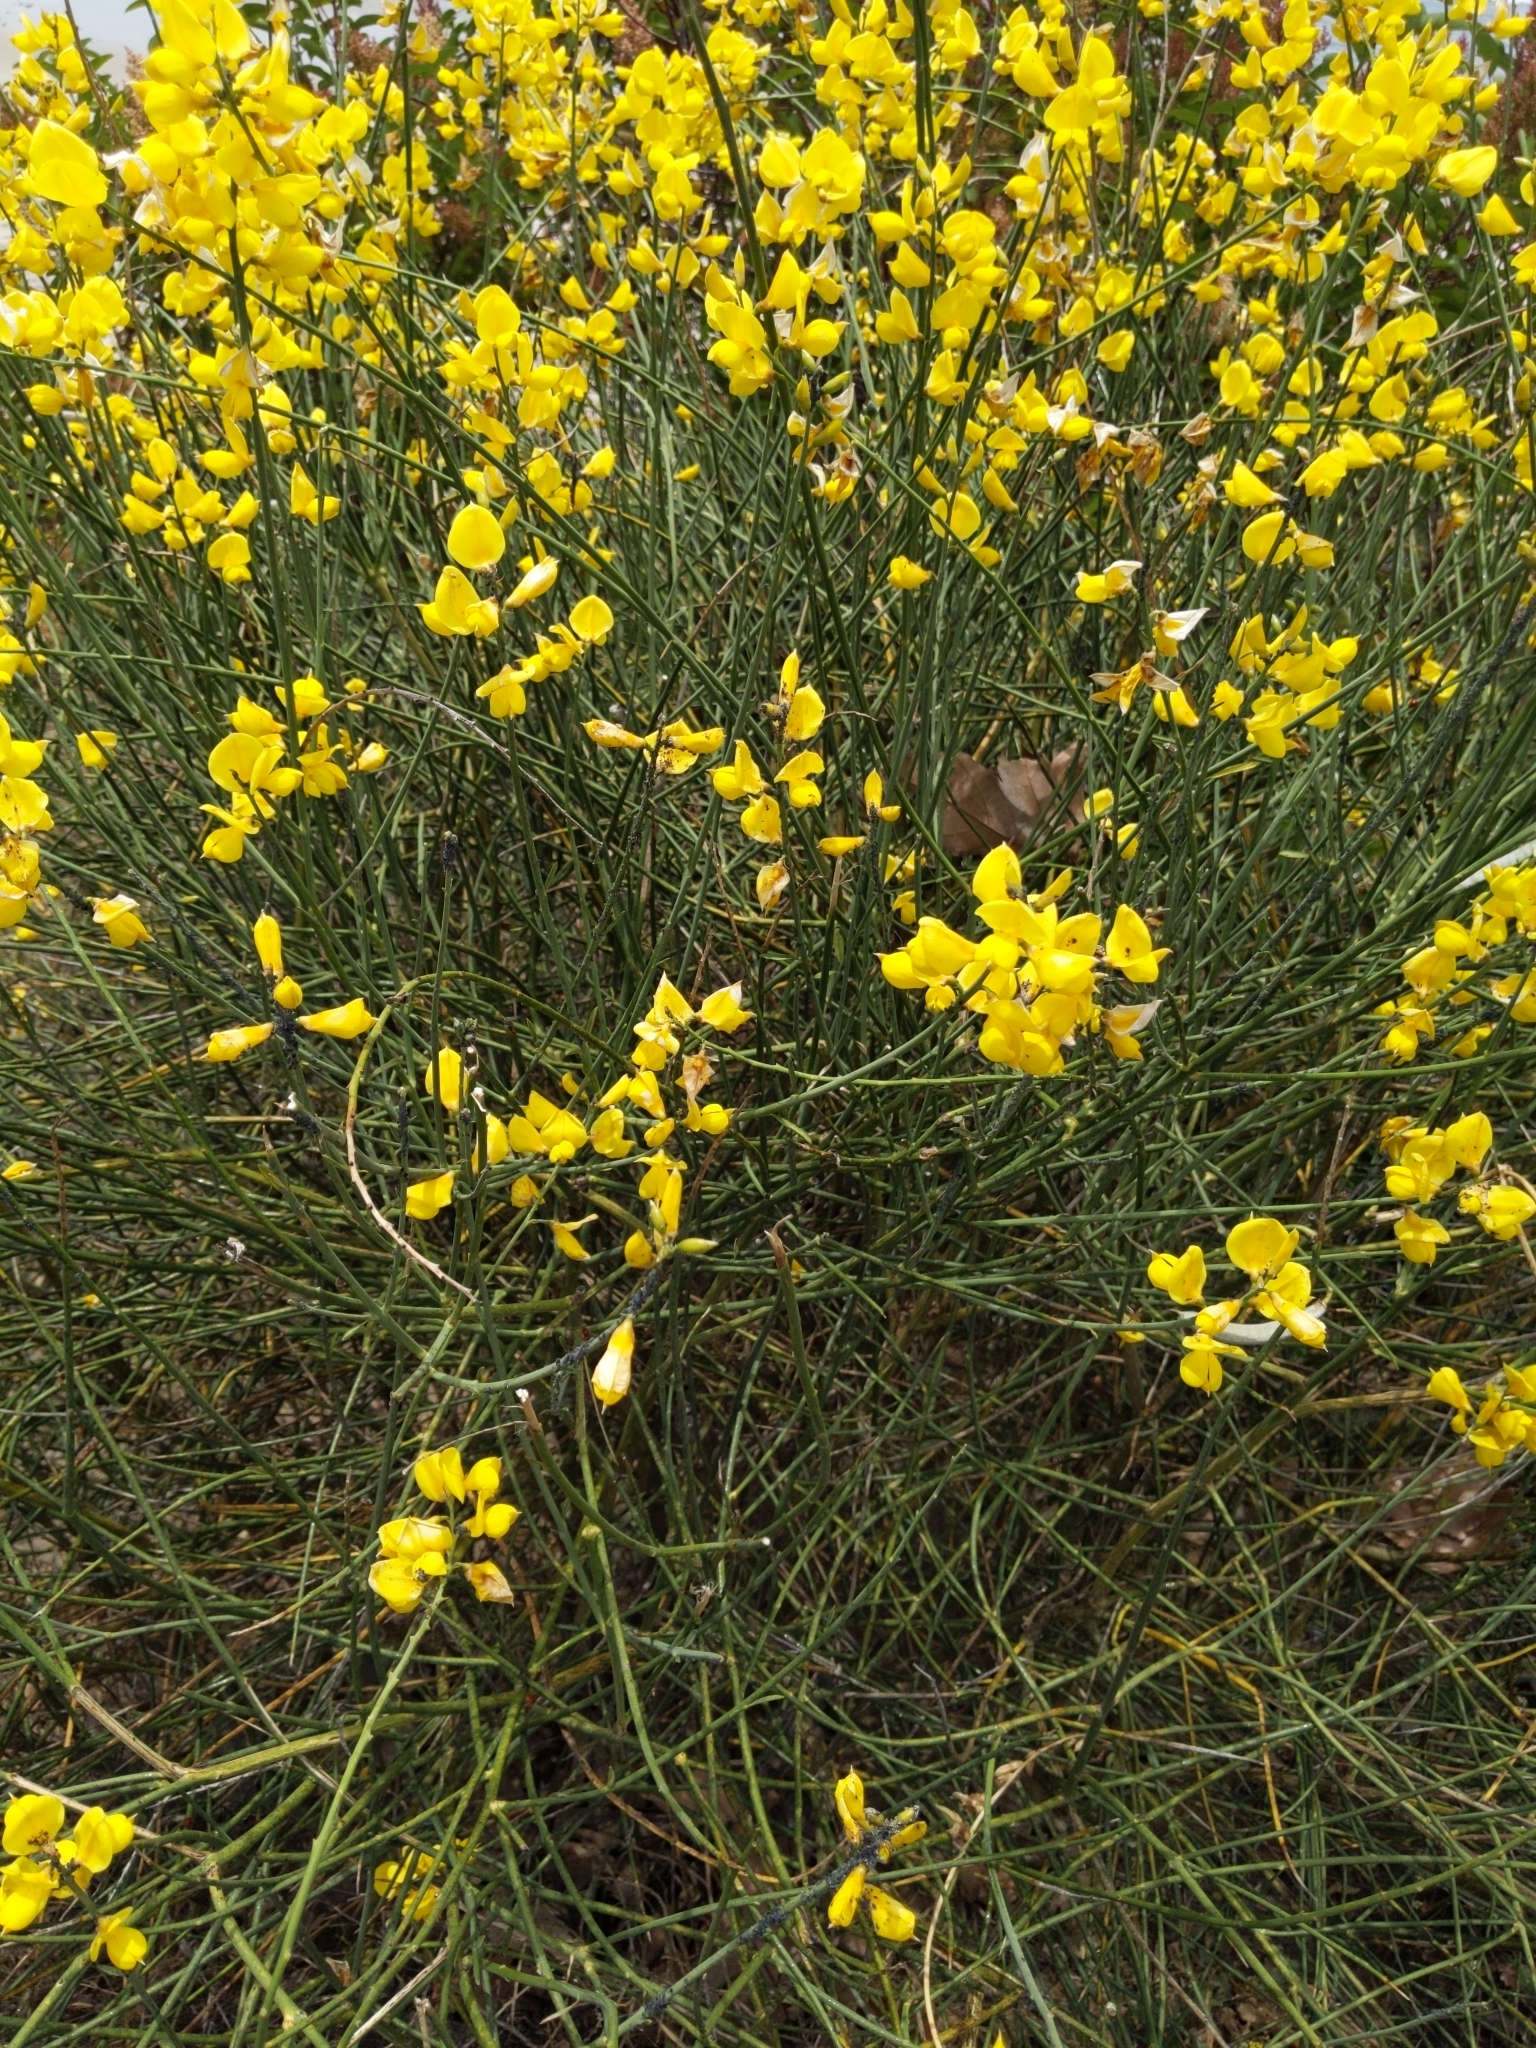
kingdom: Plantae
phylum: Tracheophyta
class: Magnoliopsida
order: Fabales
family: Fabaceae
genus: Spartium
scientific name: Spartium junceum
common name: Spanish broom
